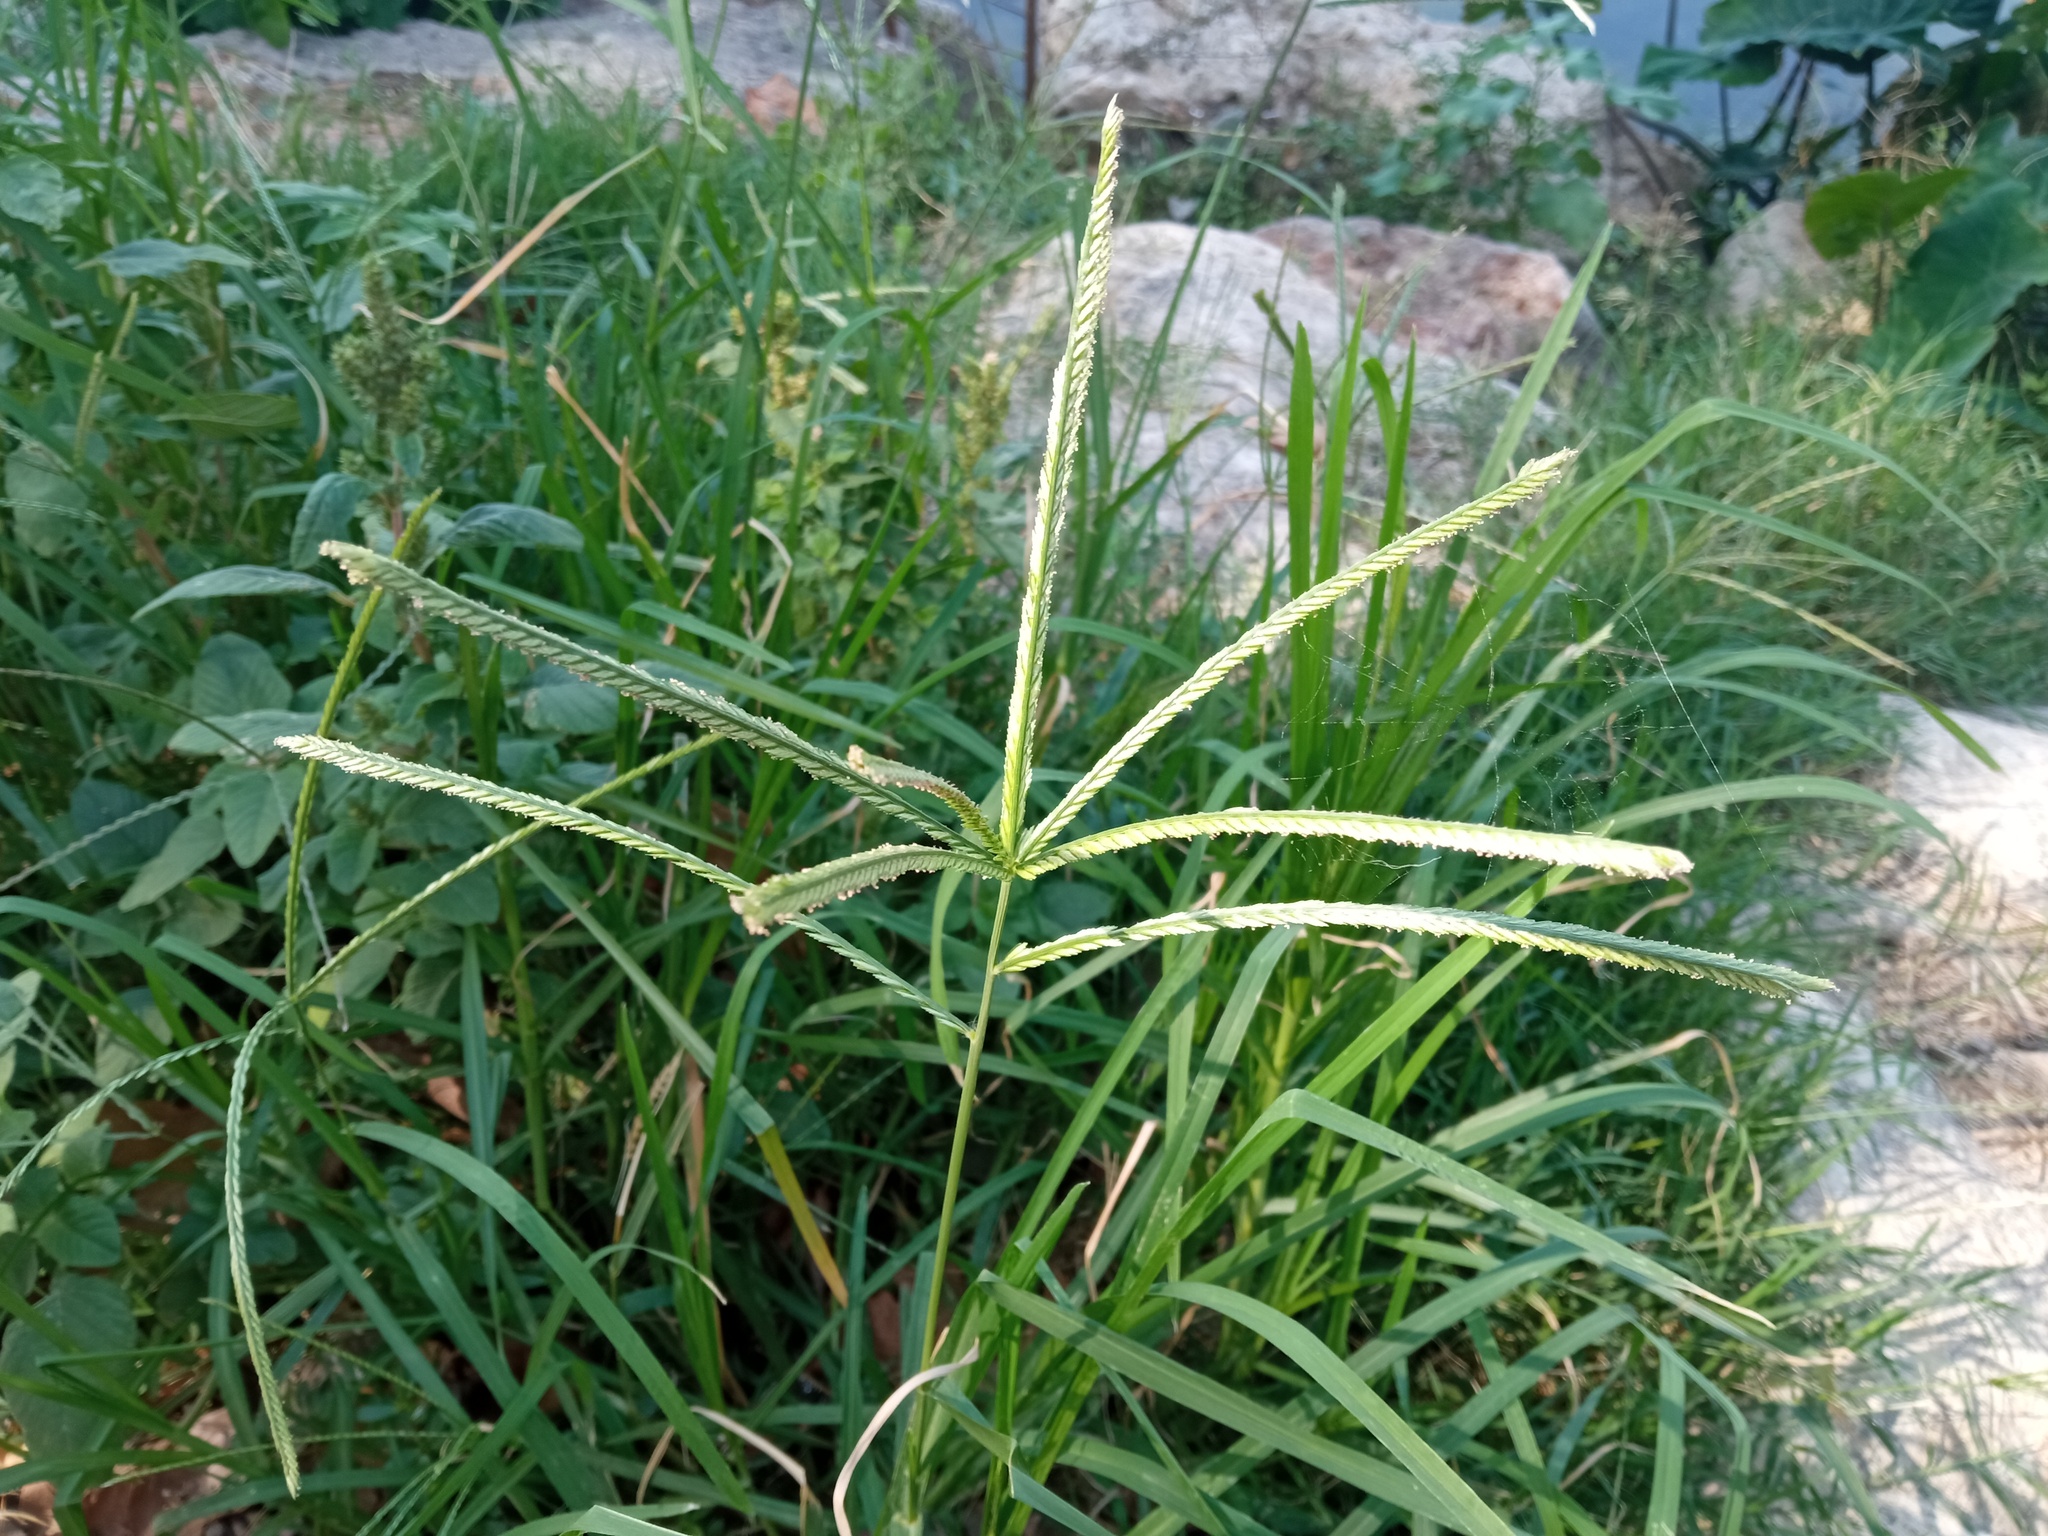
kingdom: Plantae
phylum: Tracheophyta
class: Liliopsida
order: Poales
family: Poaceae
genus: Eleusine
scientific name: Eleusine indica
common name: Yard-grass
